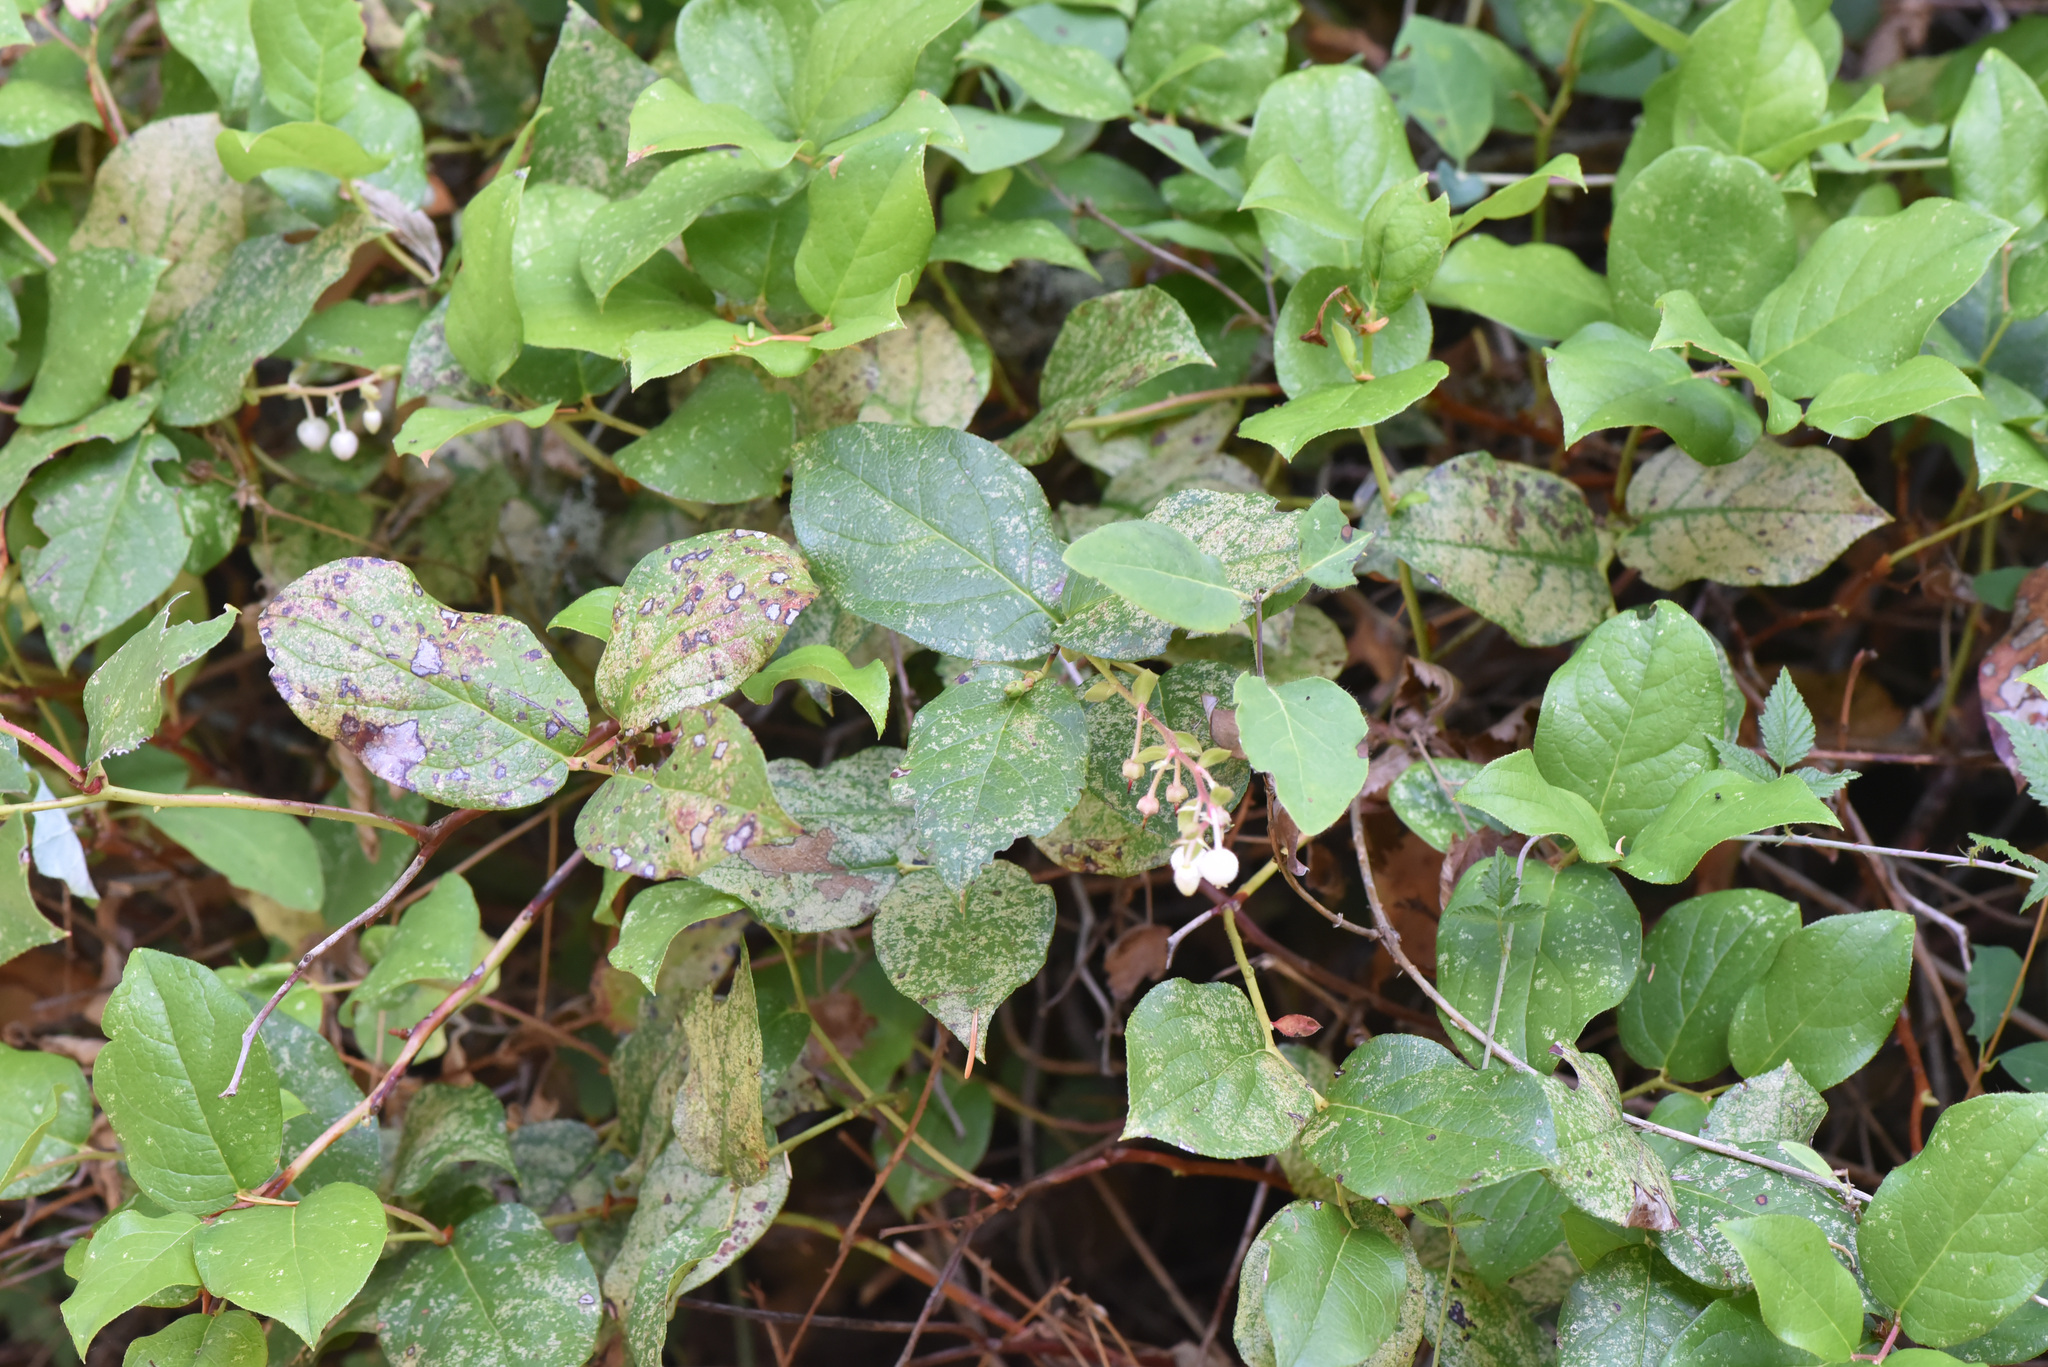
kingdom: Plantae
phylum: Tracheophyta
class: Magnoliopsida
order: Ericales
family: Ericaceae
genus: Gaultheria
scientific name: Gaultheria shallon
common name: Shallon
